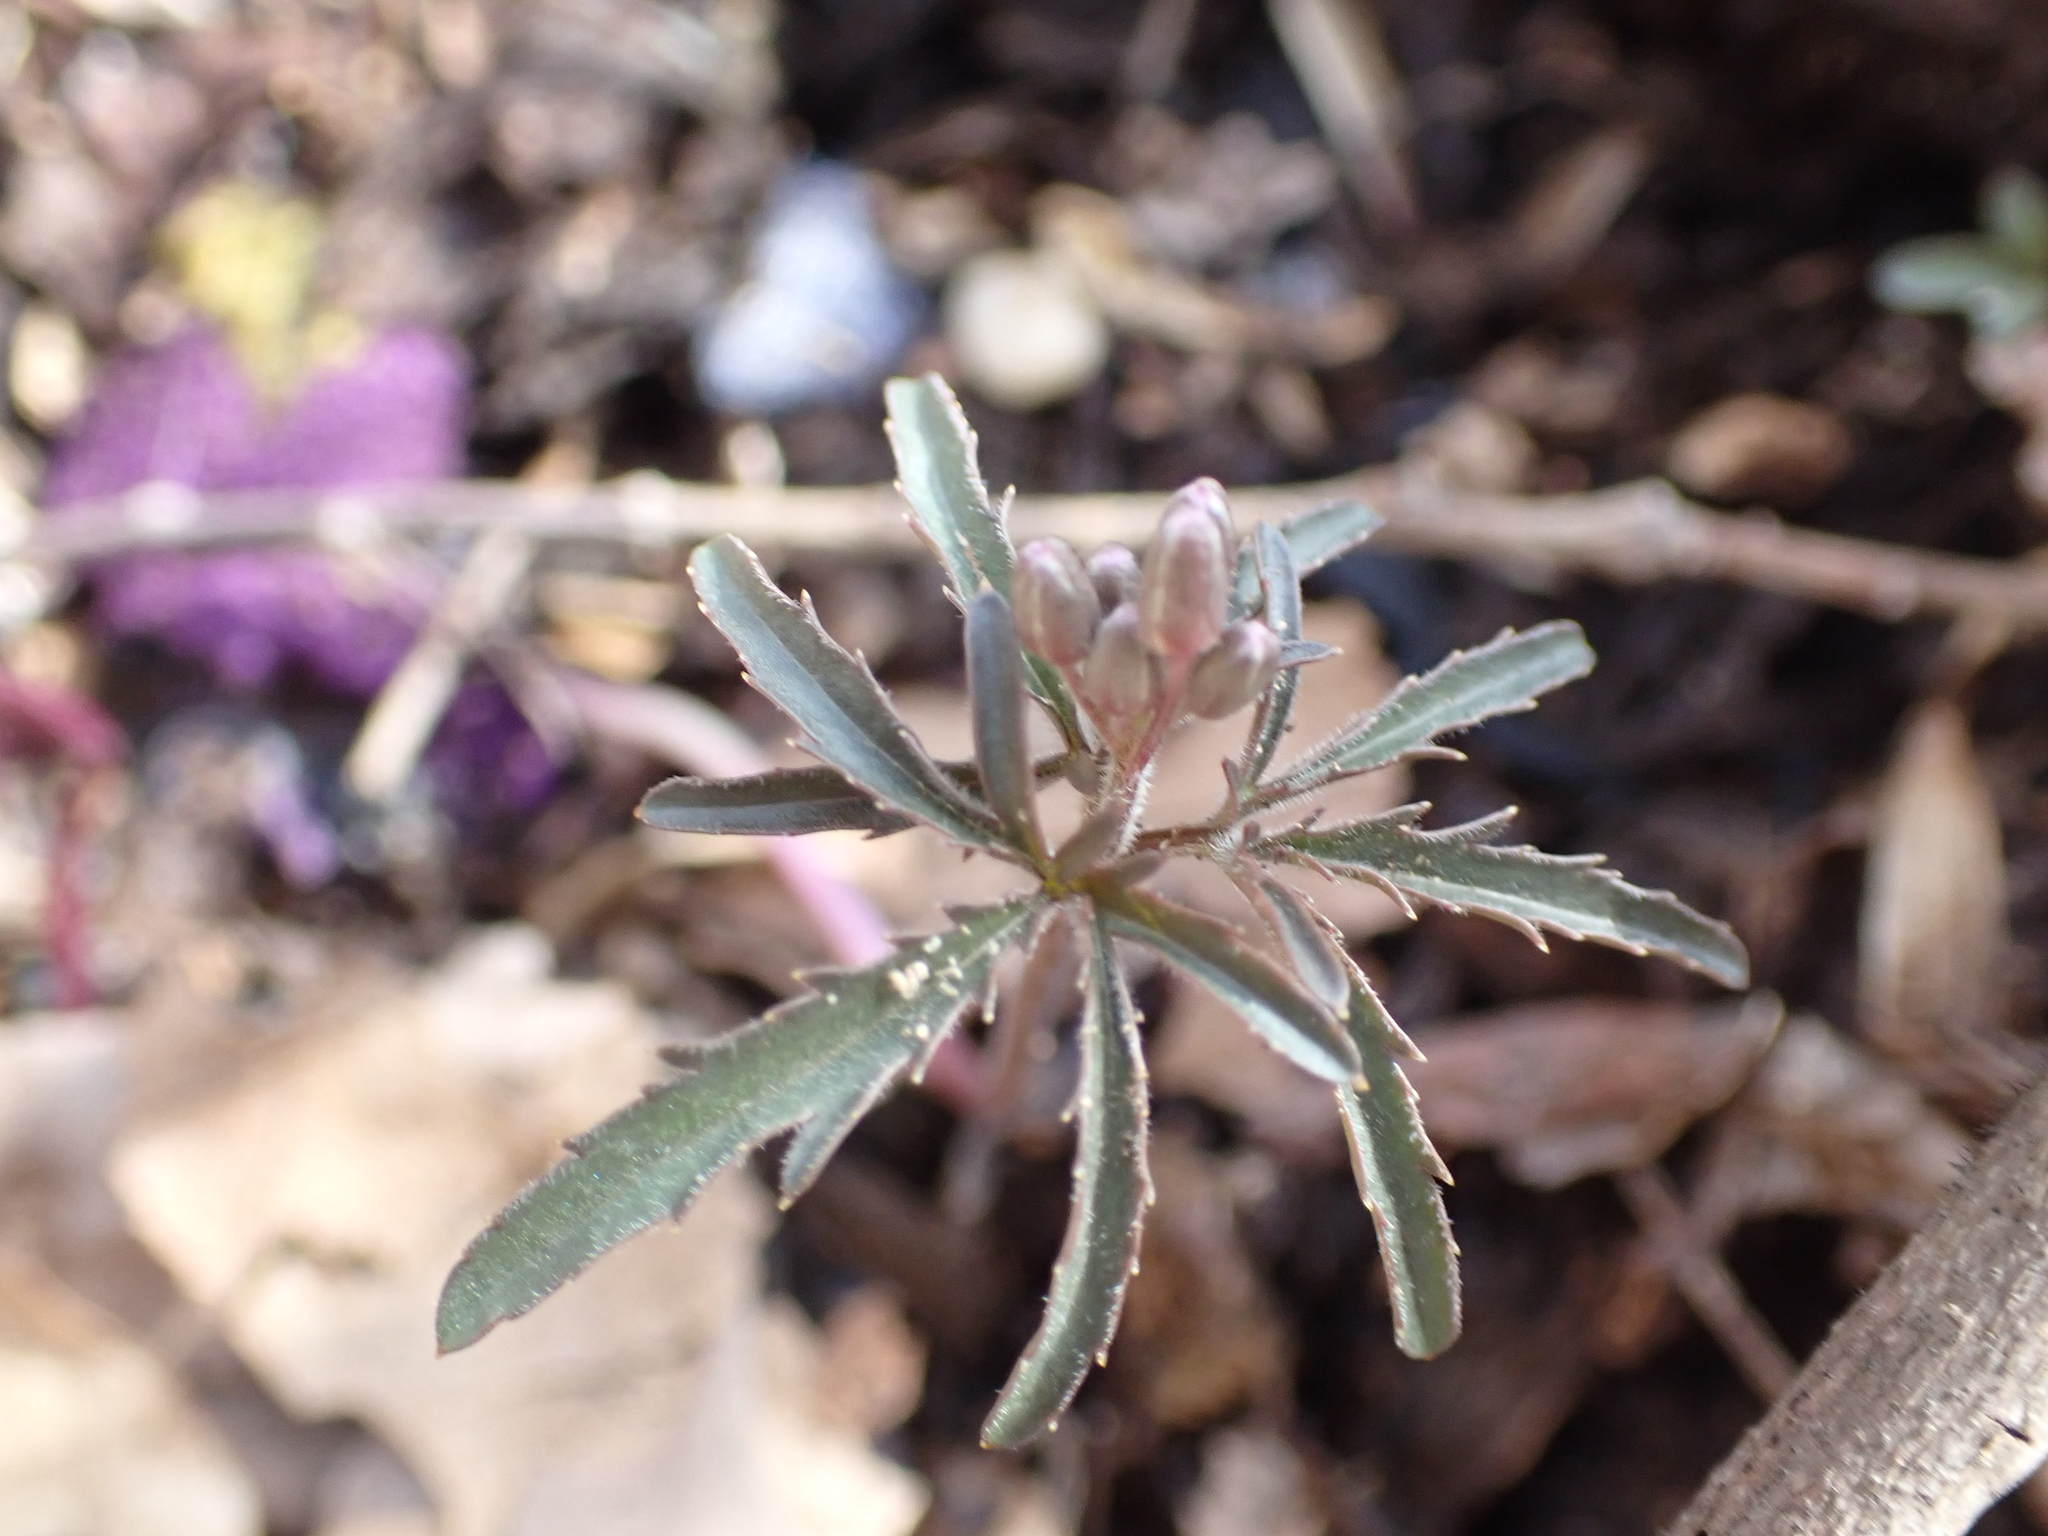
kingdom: Plantae
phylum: Tracheophyta
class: Magnoliopsida
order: Brassicales
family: Brassicaceae
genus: Cardamine
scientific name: Cardamine concatenata
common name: Cut-leaf toothcup
